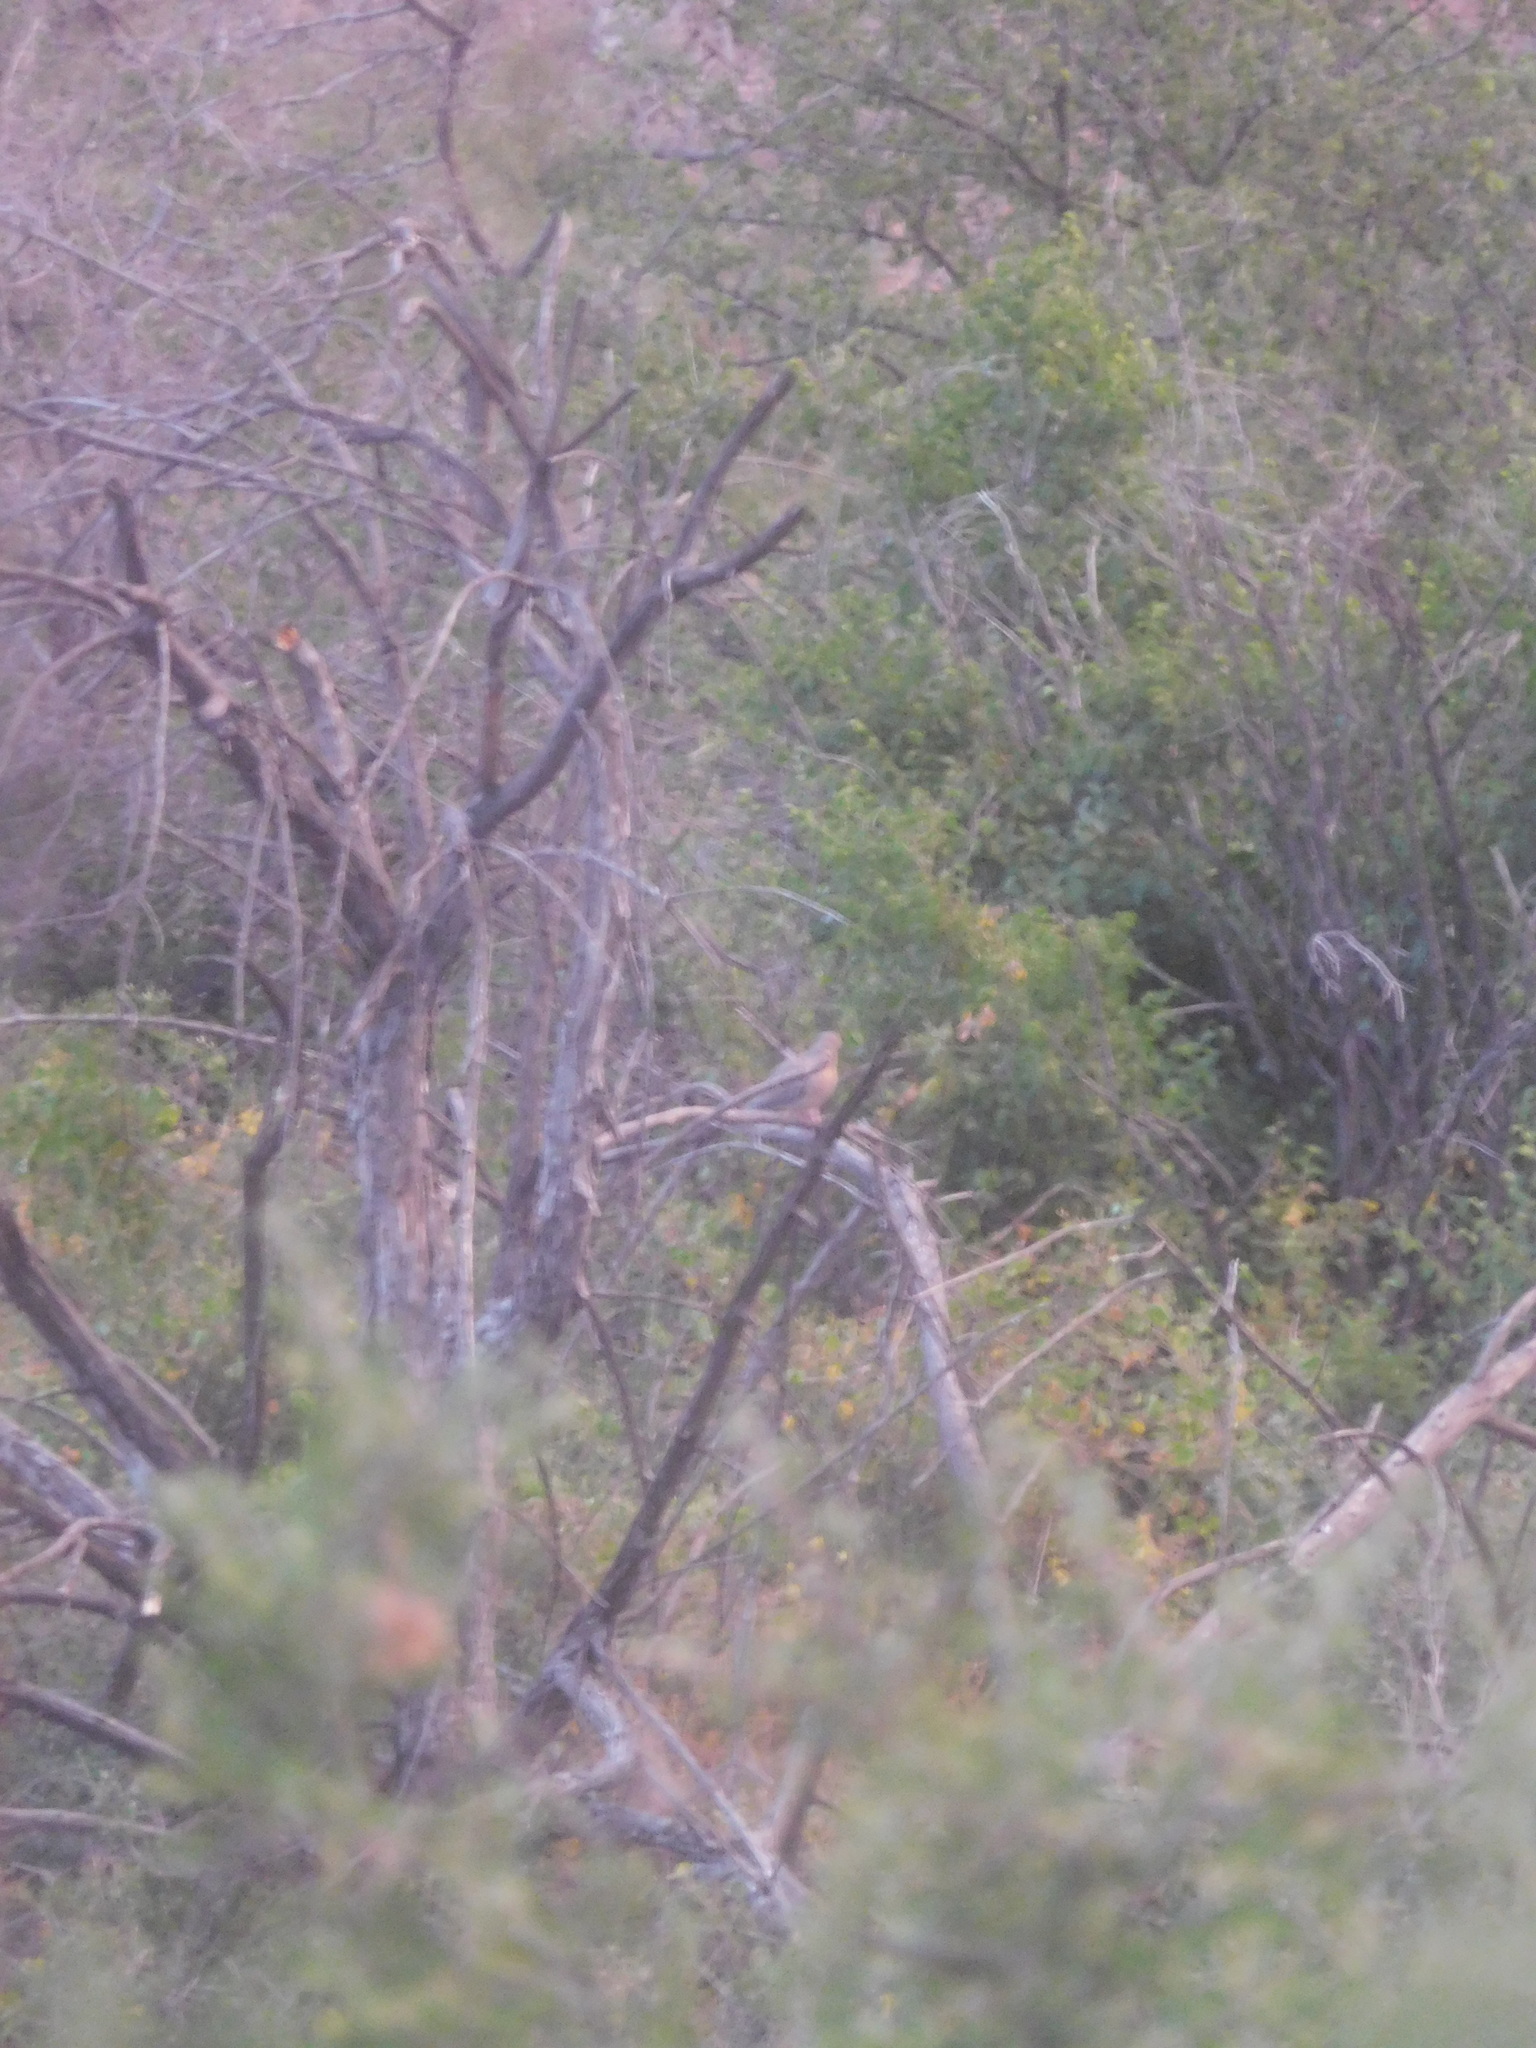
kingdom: Animalia
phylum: Chordata
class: Aves
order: Columbiformes
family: Columbidae
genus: Zenaida
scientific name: Zenaida macroura
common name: Mourning dove
